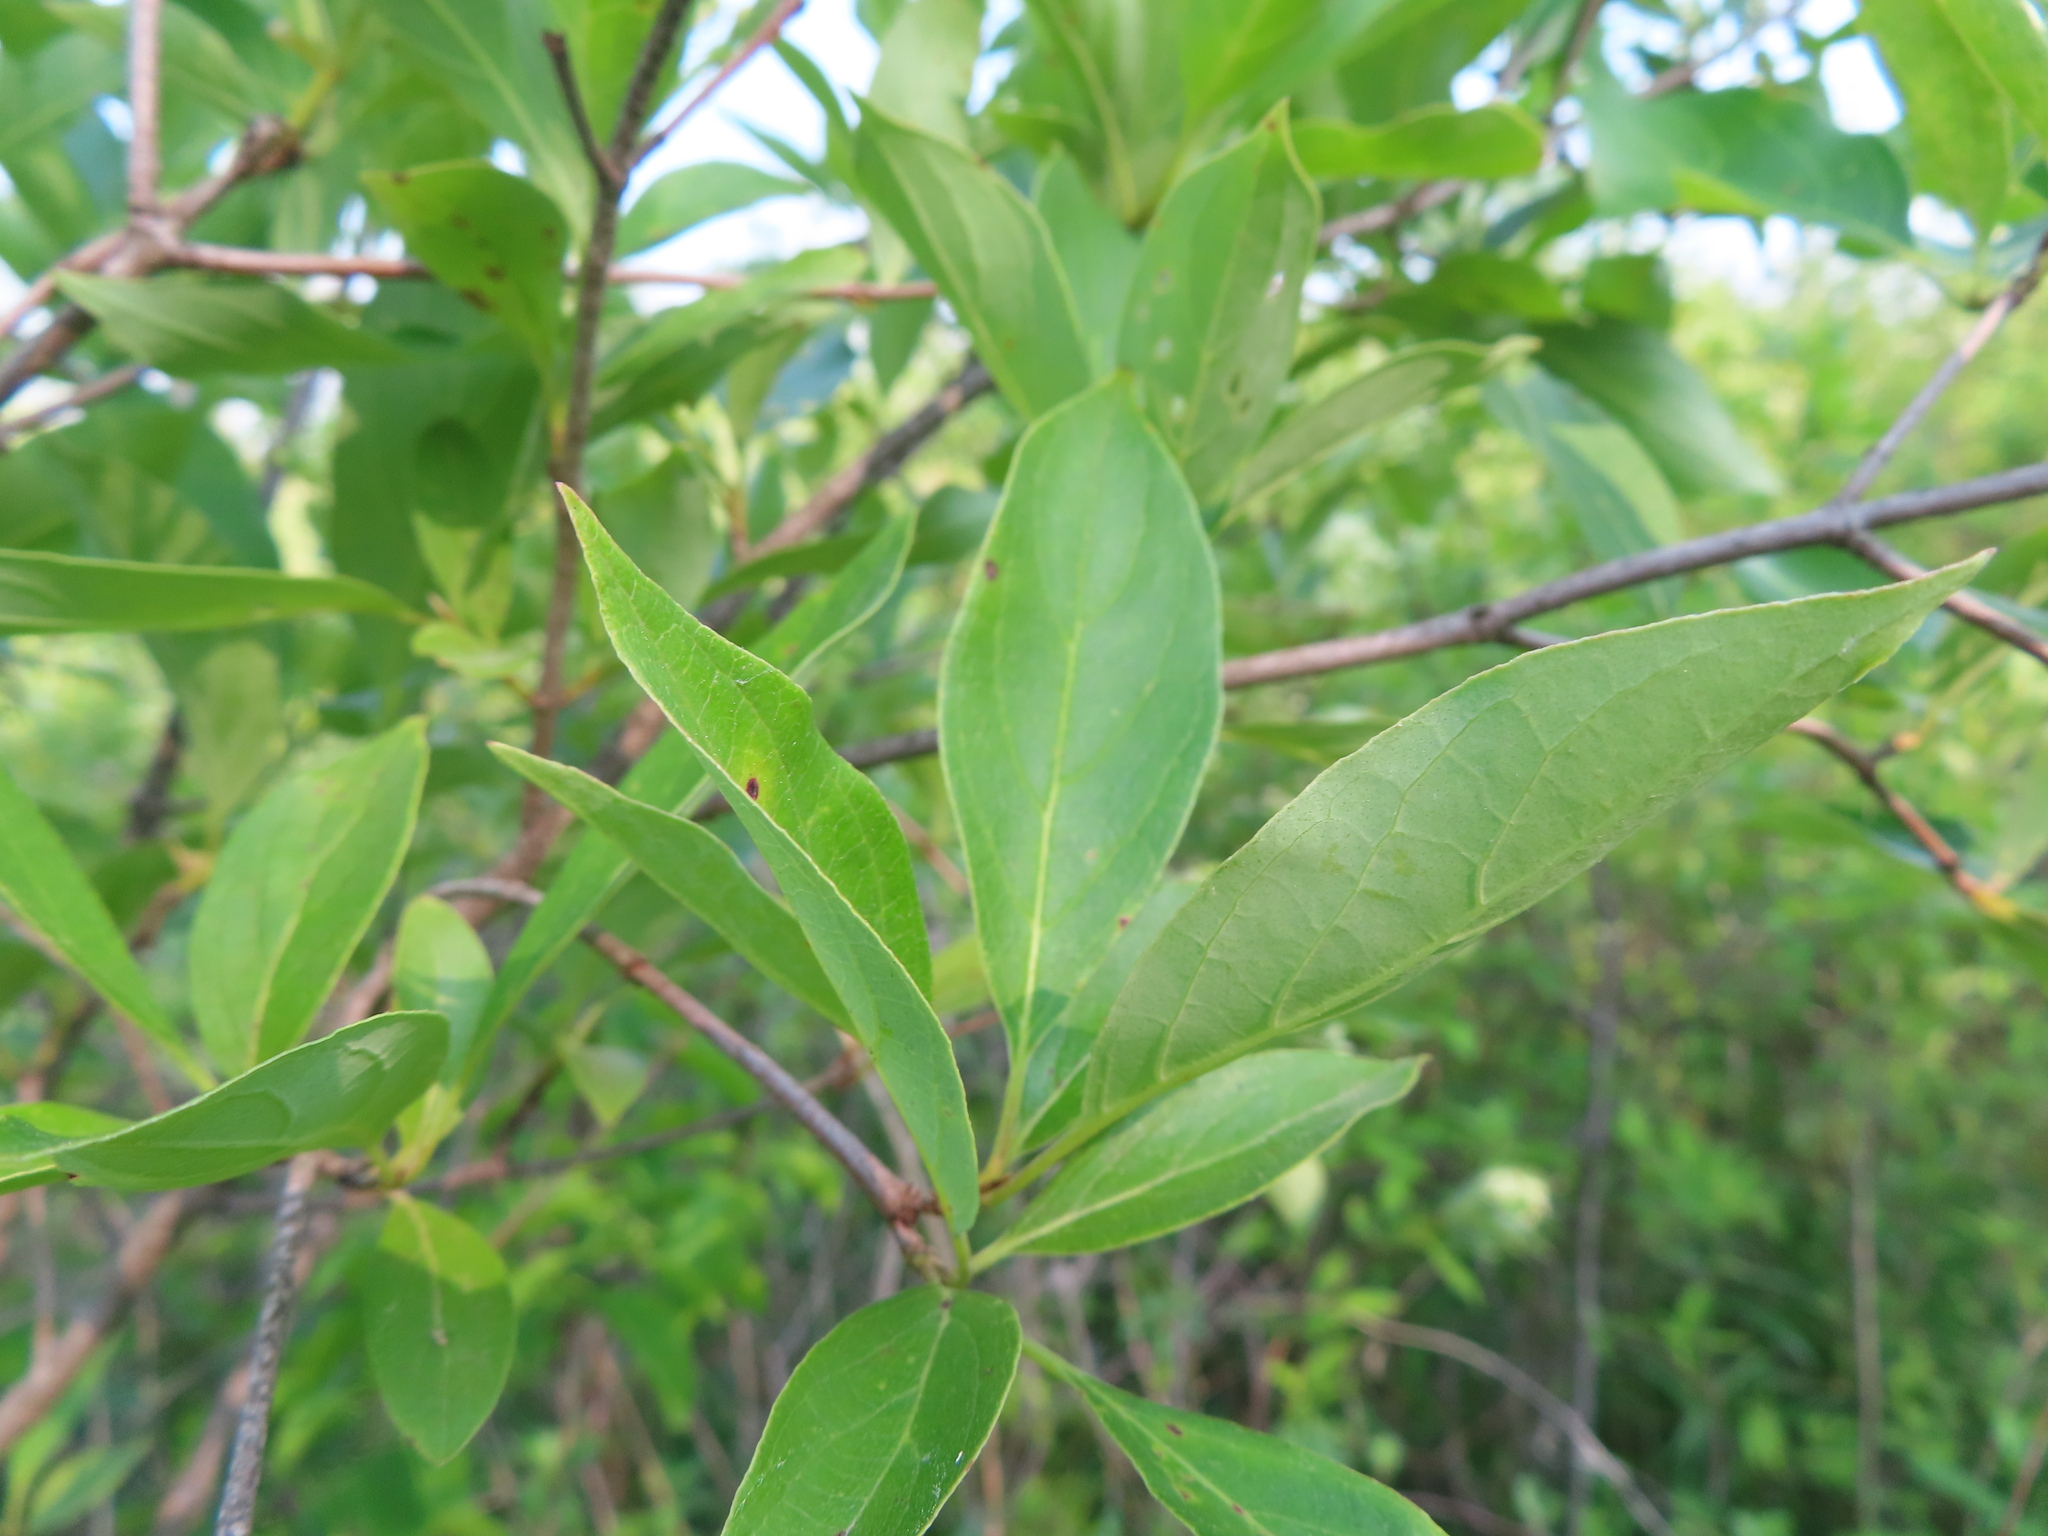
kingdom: Plantae
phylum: Tracheophyta
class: Magnoliopsida
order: Cornales
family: Cornaceae
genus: Cornus
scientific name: Cornus racemosa
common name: Panicled dogwood
